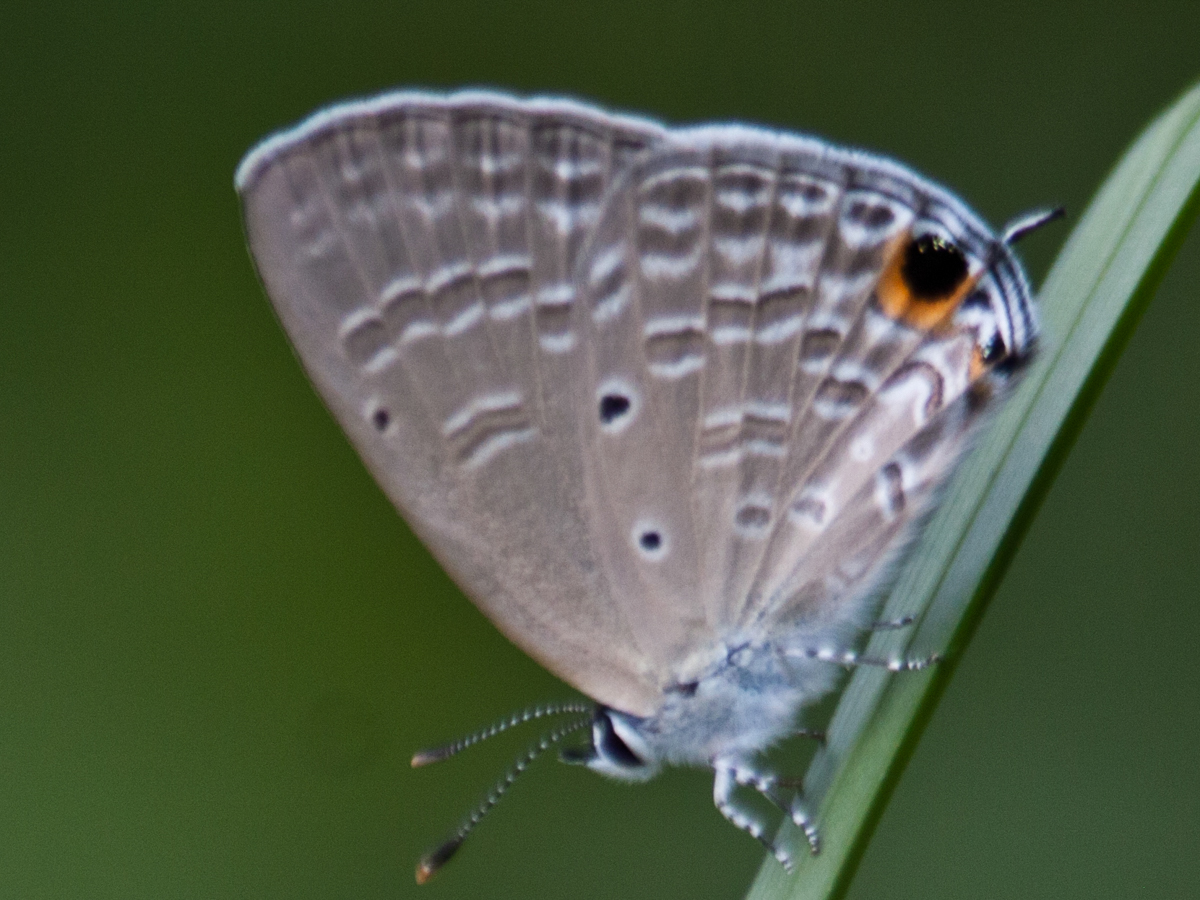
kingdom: Animalia
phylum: Arthropoda
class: Insecta
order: Lepidoptera
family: Lycaenidae
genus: Catochrysops
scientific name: Catochrysops strabo
